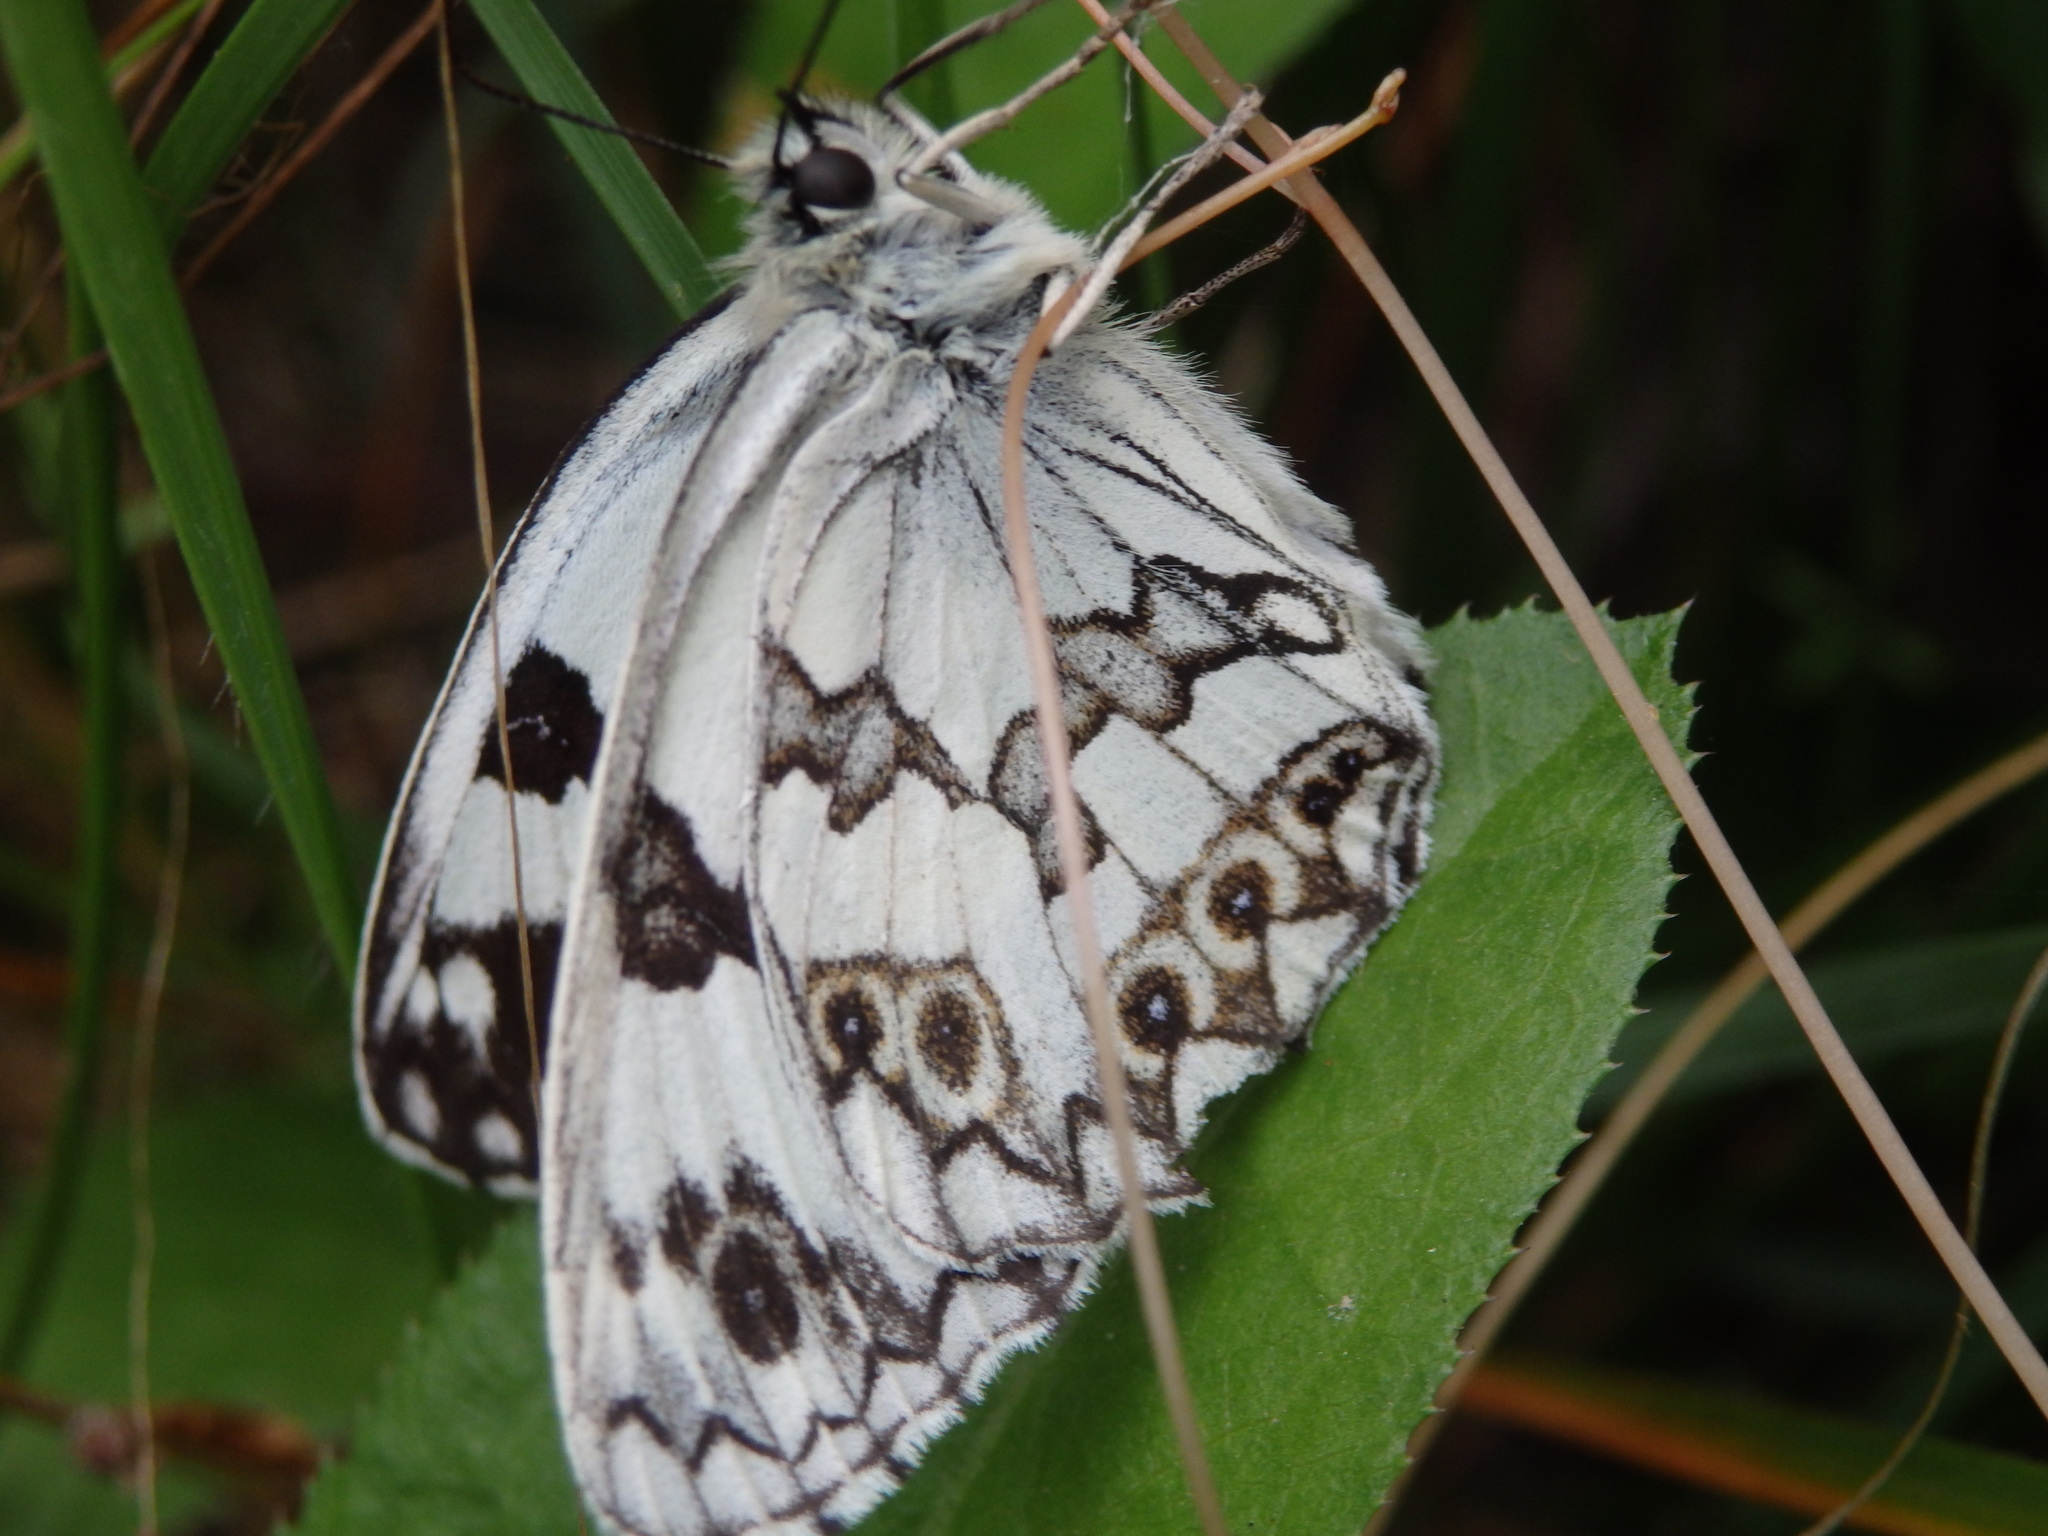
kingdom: Animalia
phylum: Arthropoda
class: Insecta
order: Lepidoptera
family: Nymphalidae
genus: Melanargia
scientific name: Melanargia lachesis
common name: Iberian marbled white
